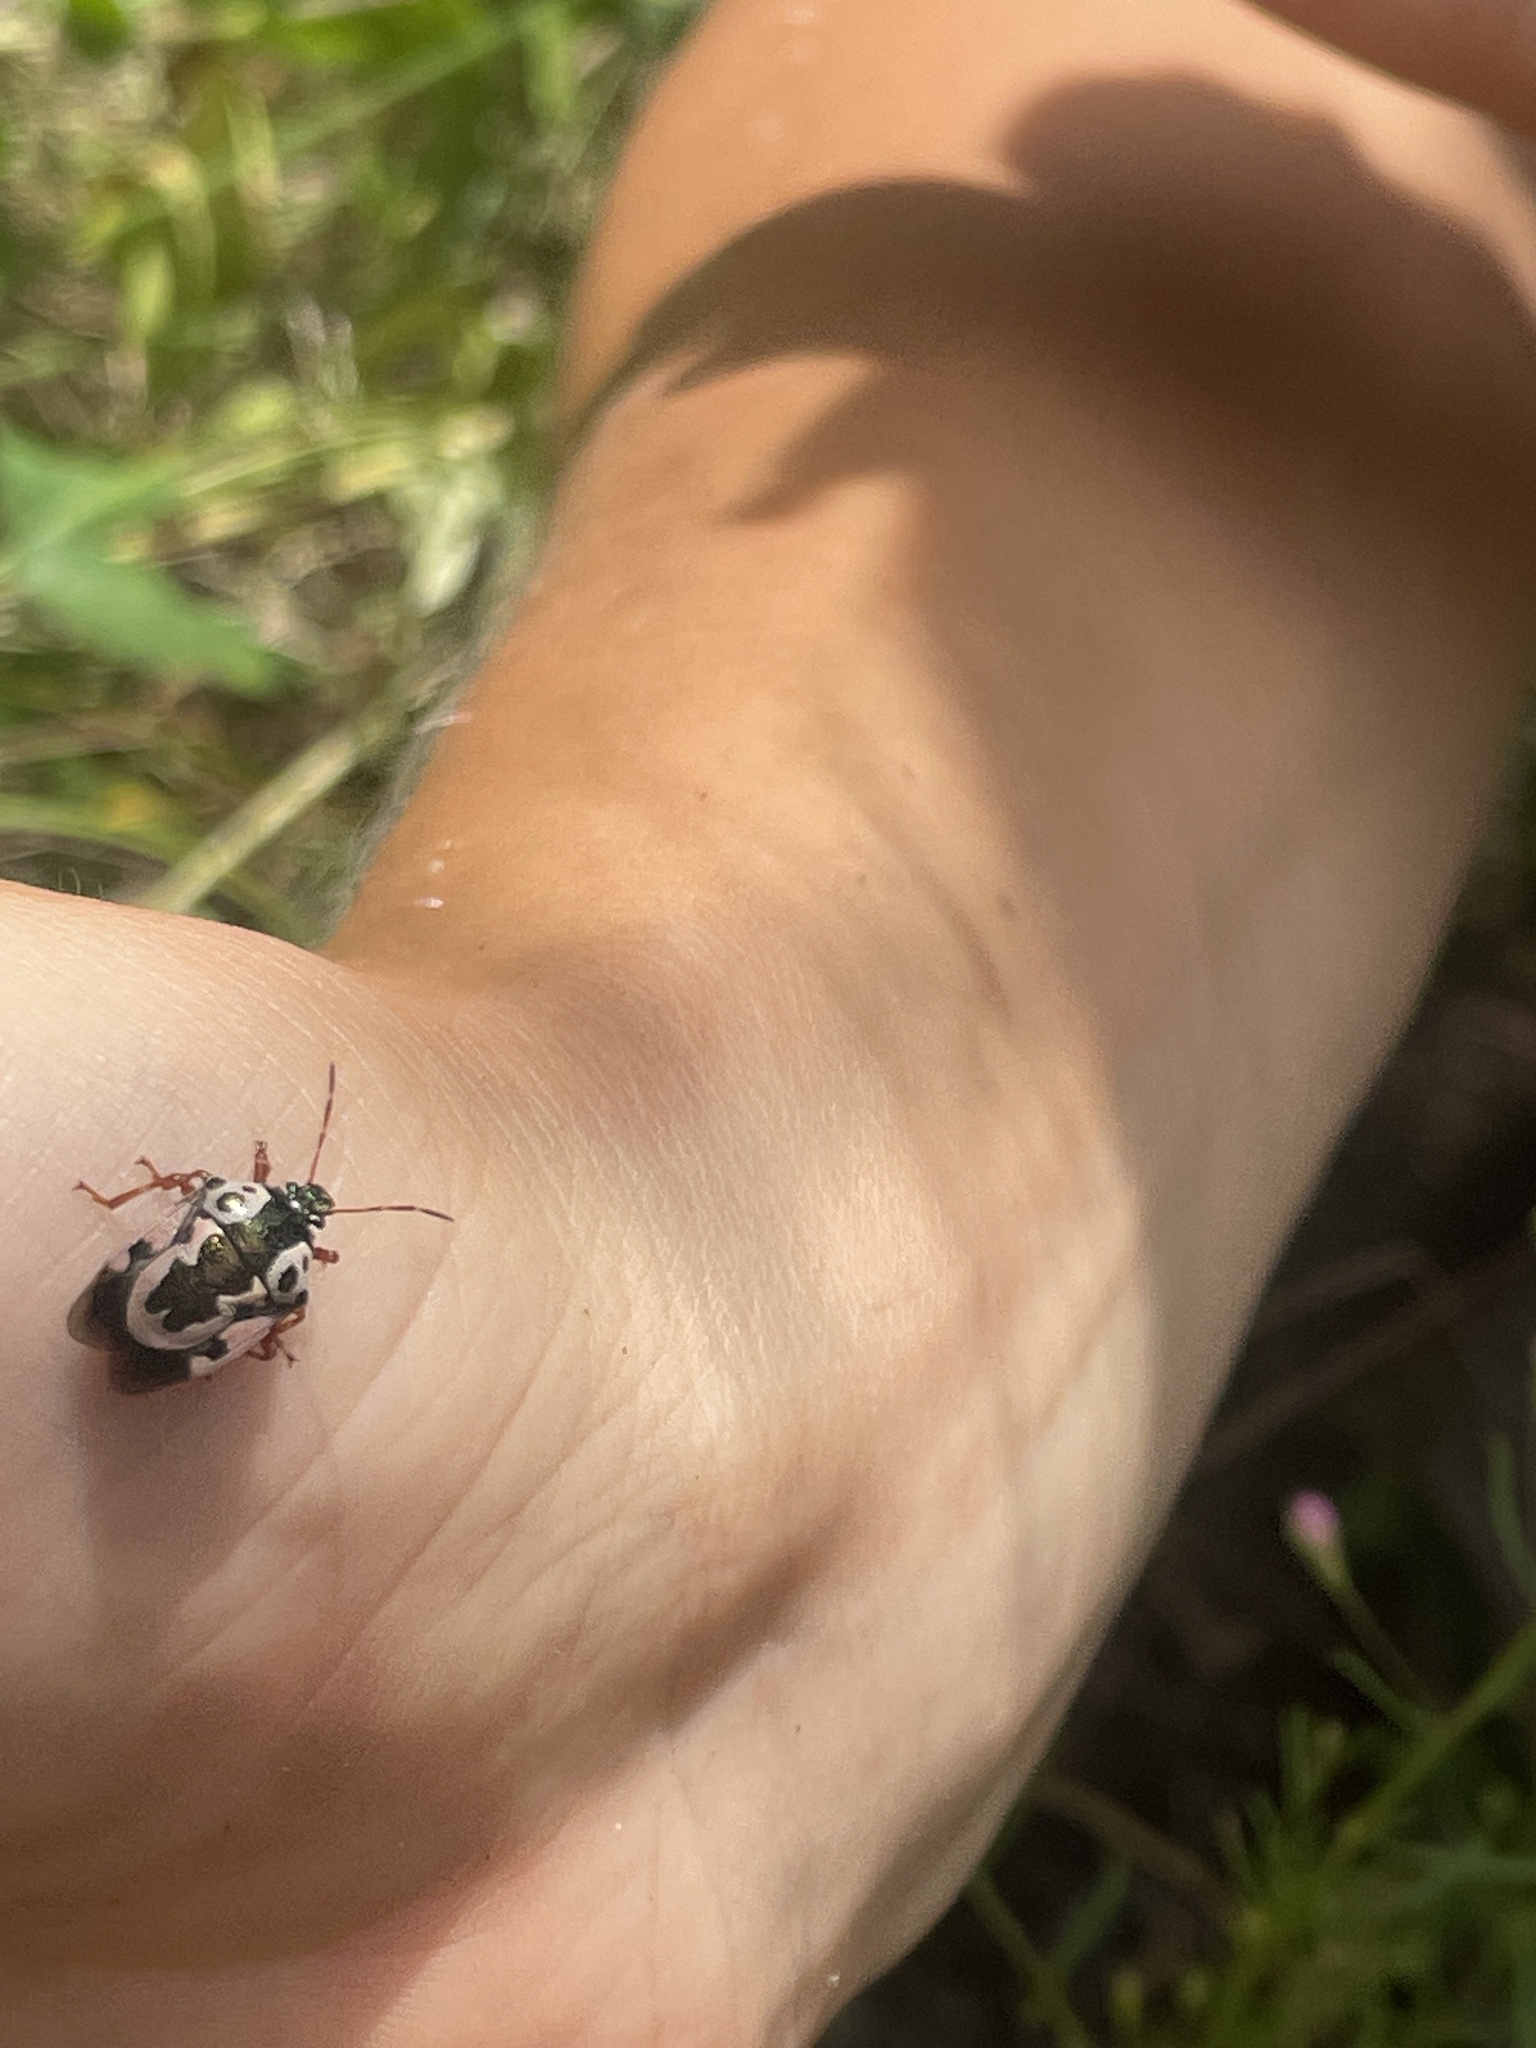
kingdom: Animalia
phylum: Arthropoda
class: Insecta
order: Hemiptera
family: Pentatomidae
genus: Stiretrus
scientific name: Stiretrus anchorago
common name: Anchor stink bug
